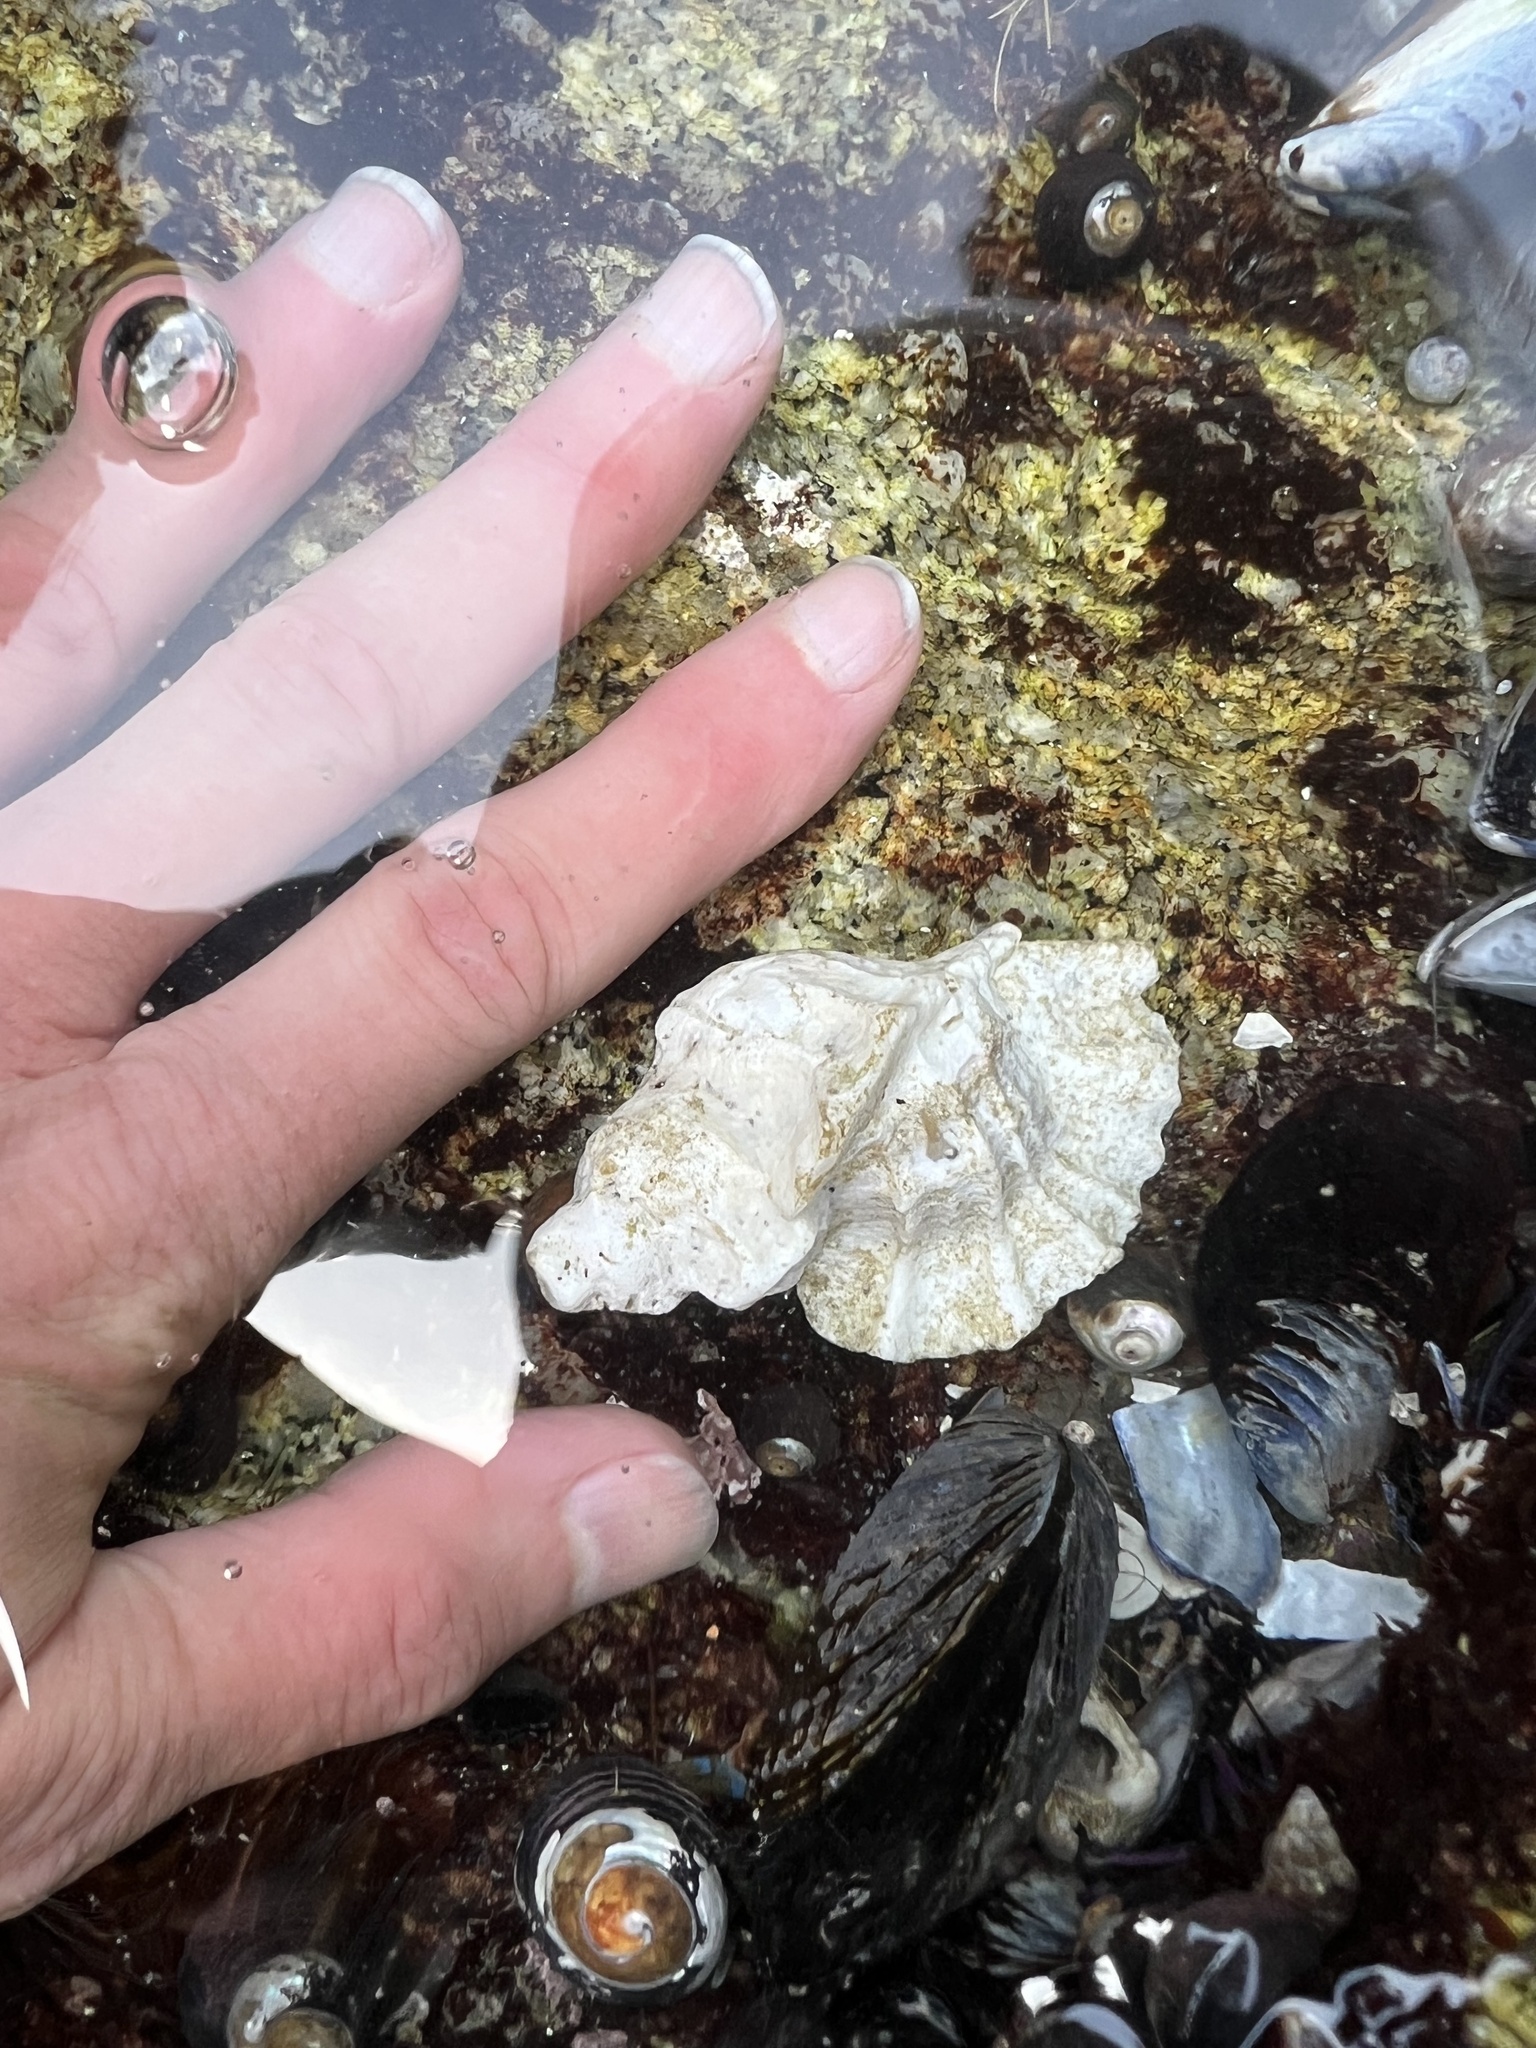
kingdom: Animalia
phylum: Mollusca
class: Gastropoda
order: Neogastropoda
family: Muricidae
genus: Ceratostoma
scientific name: Ceratostoma foliatum
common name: Foliate thorn purpura
